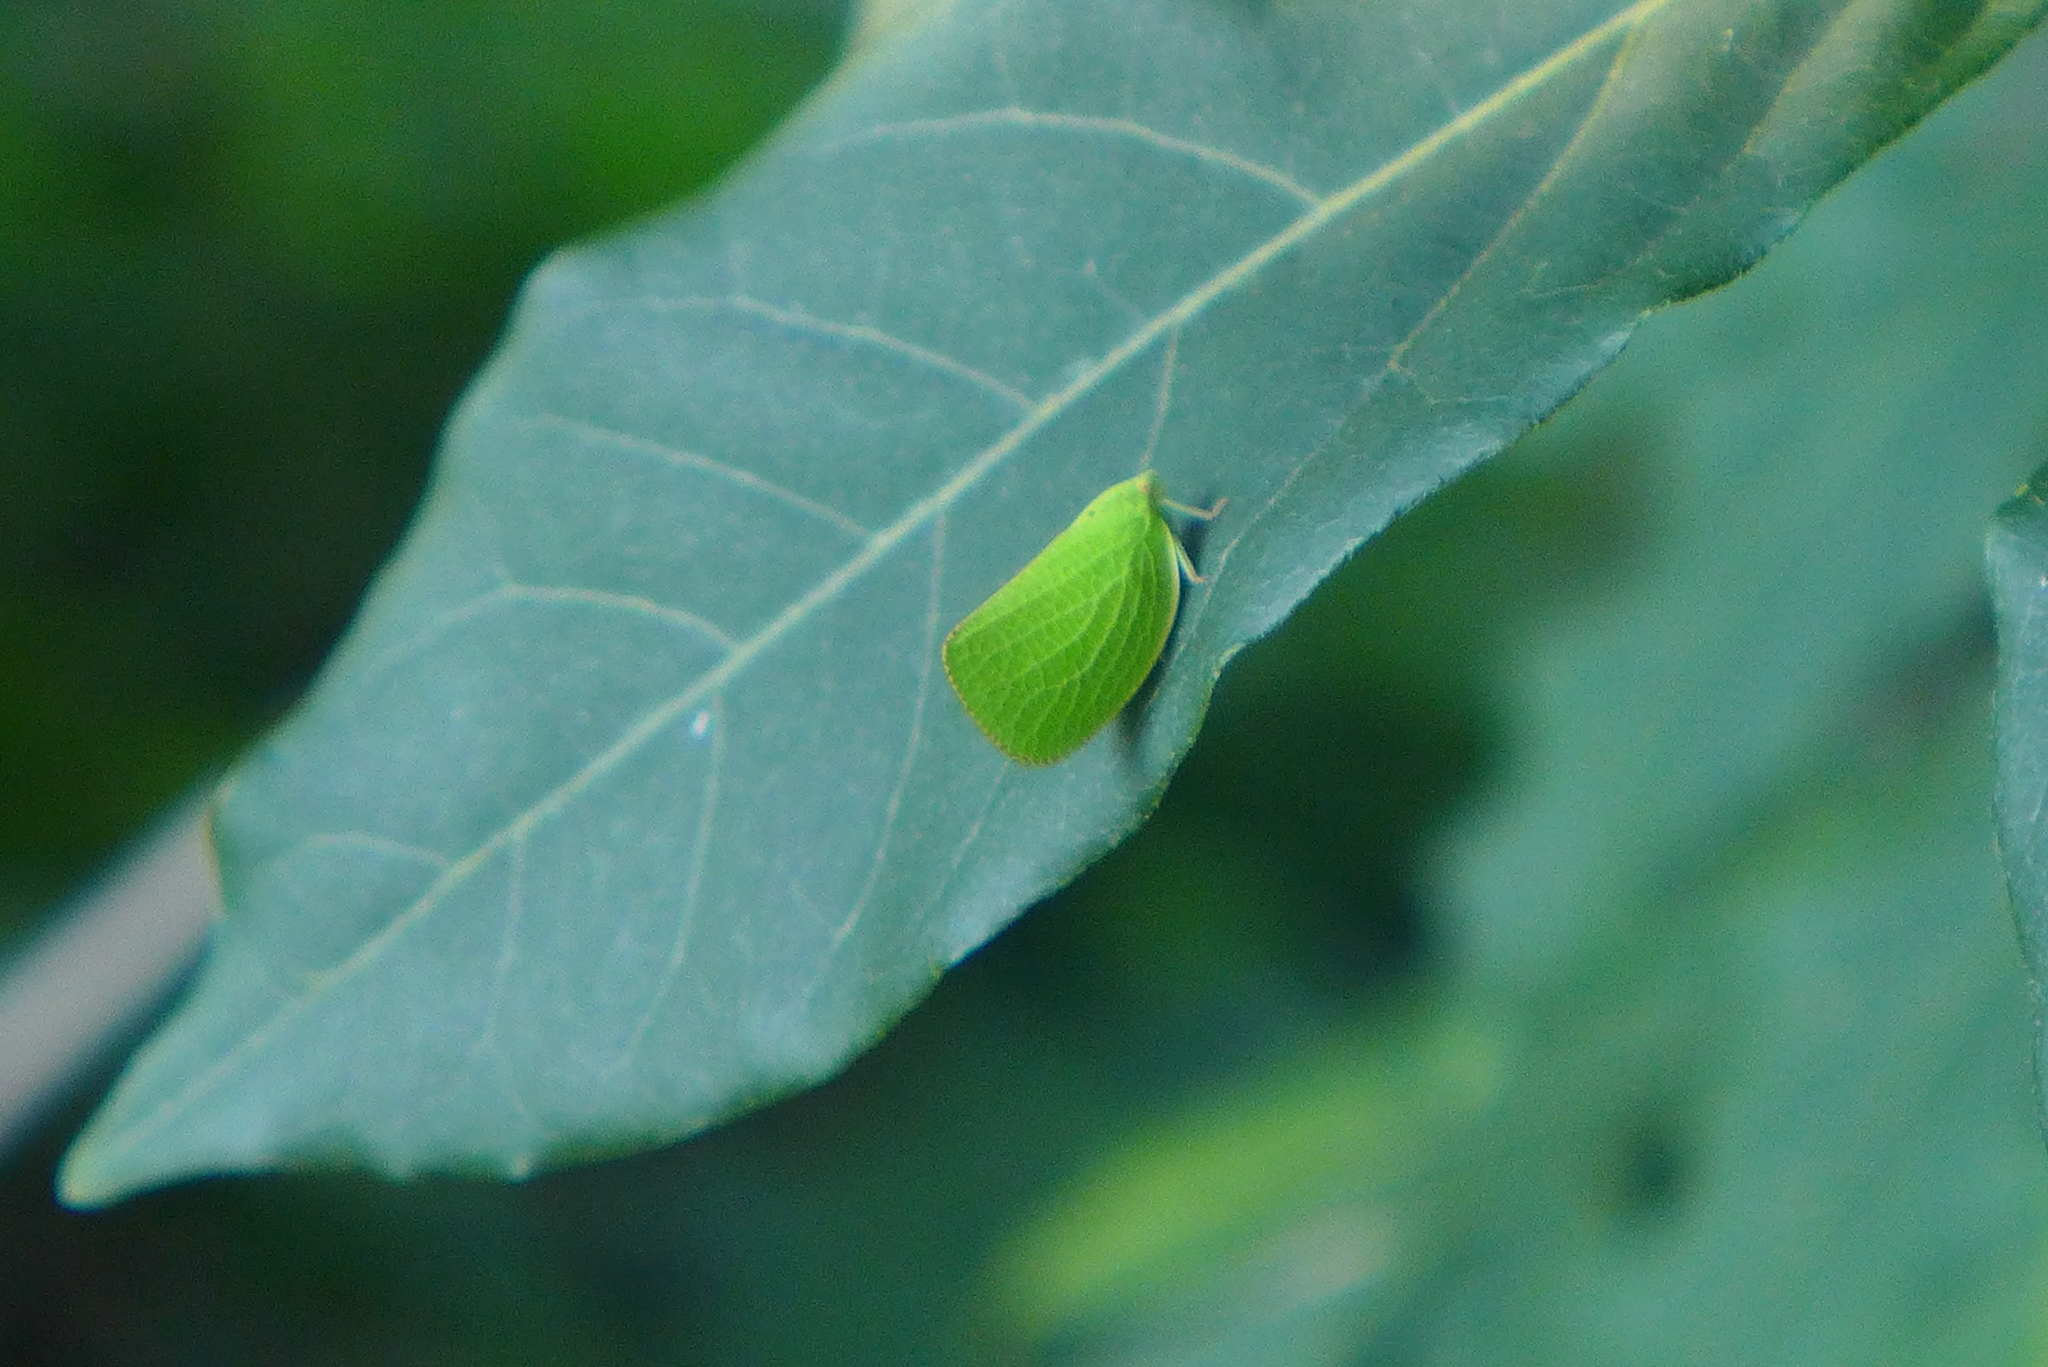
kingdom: Animalia
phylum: Arthropoda
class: Insecta
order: Hemiptera
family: Acanaloniidae
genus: Acanalonia
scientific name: Acanalonia conica
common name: Green cone-headed planthopper
